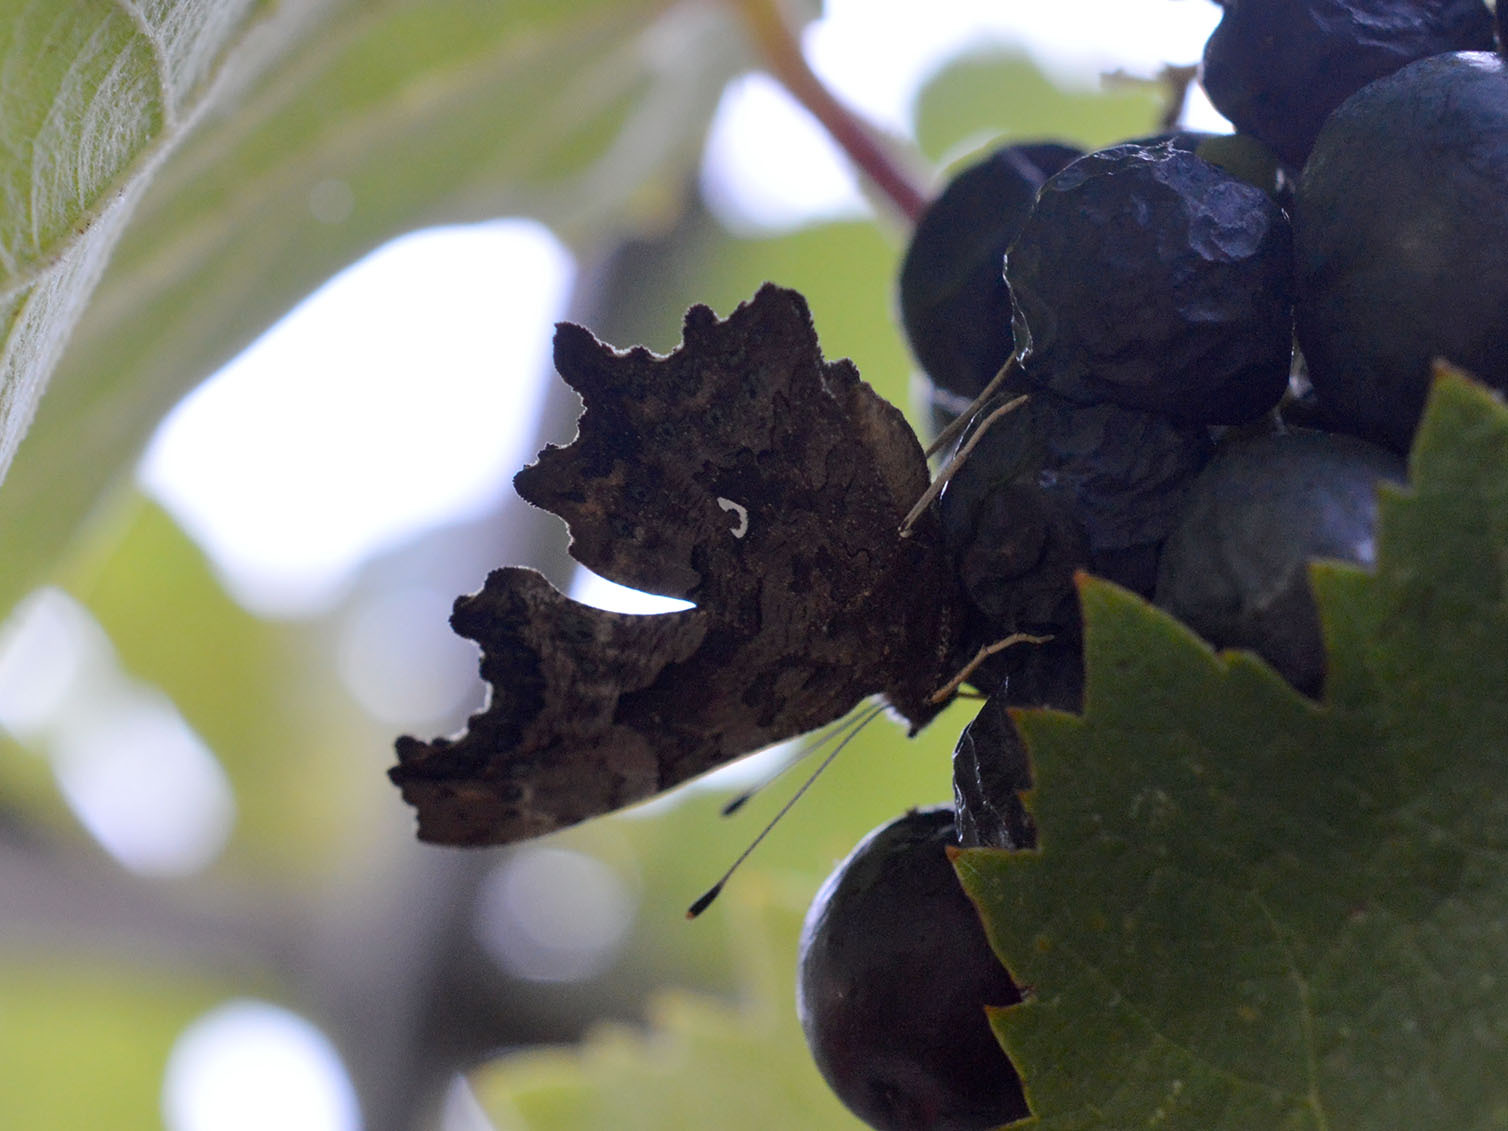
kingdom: Animalia
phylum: Arthropoda
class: Insecta
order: Lepidoptera
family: Nymphalidae
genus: Vanessa
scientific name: Vanessa atalanta
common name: Red admiral
